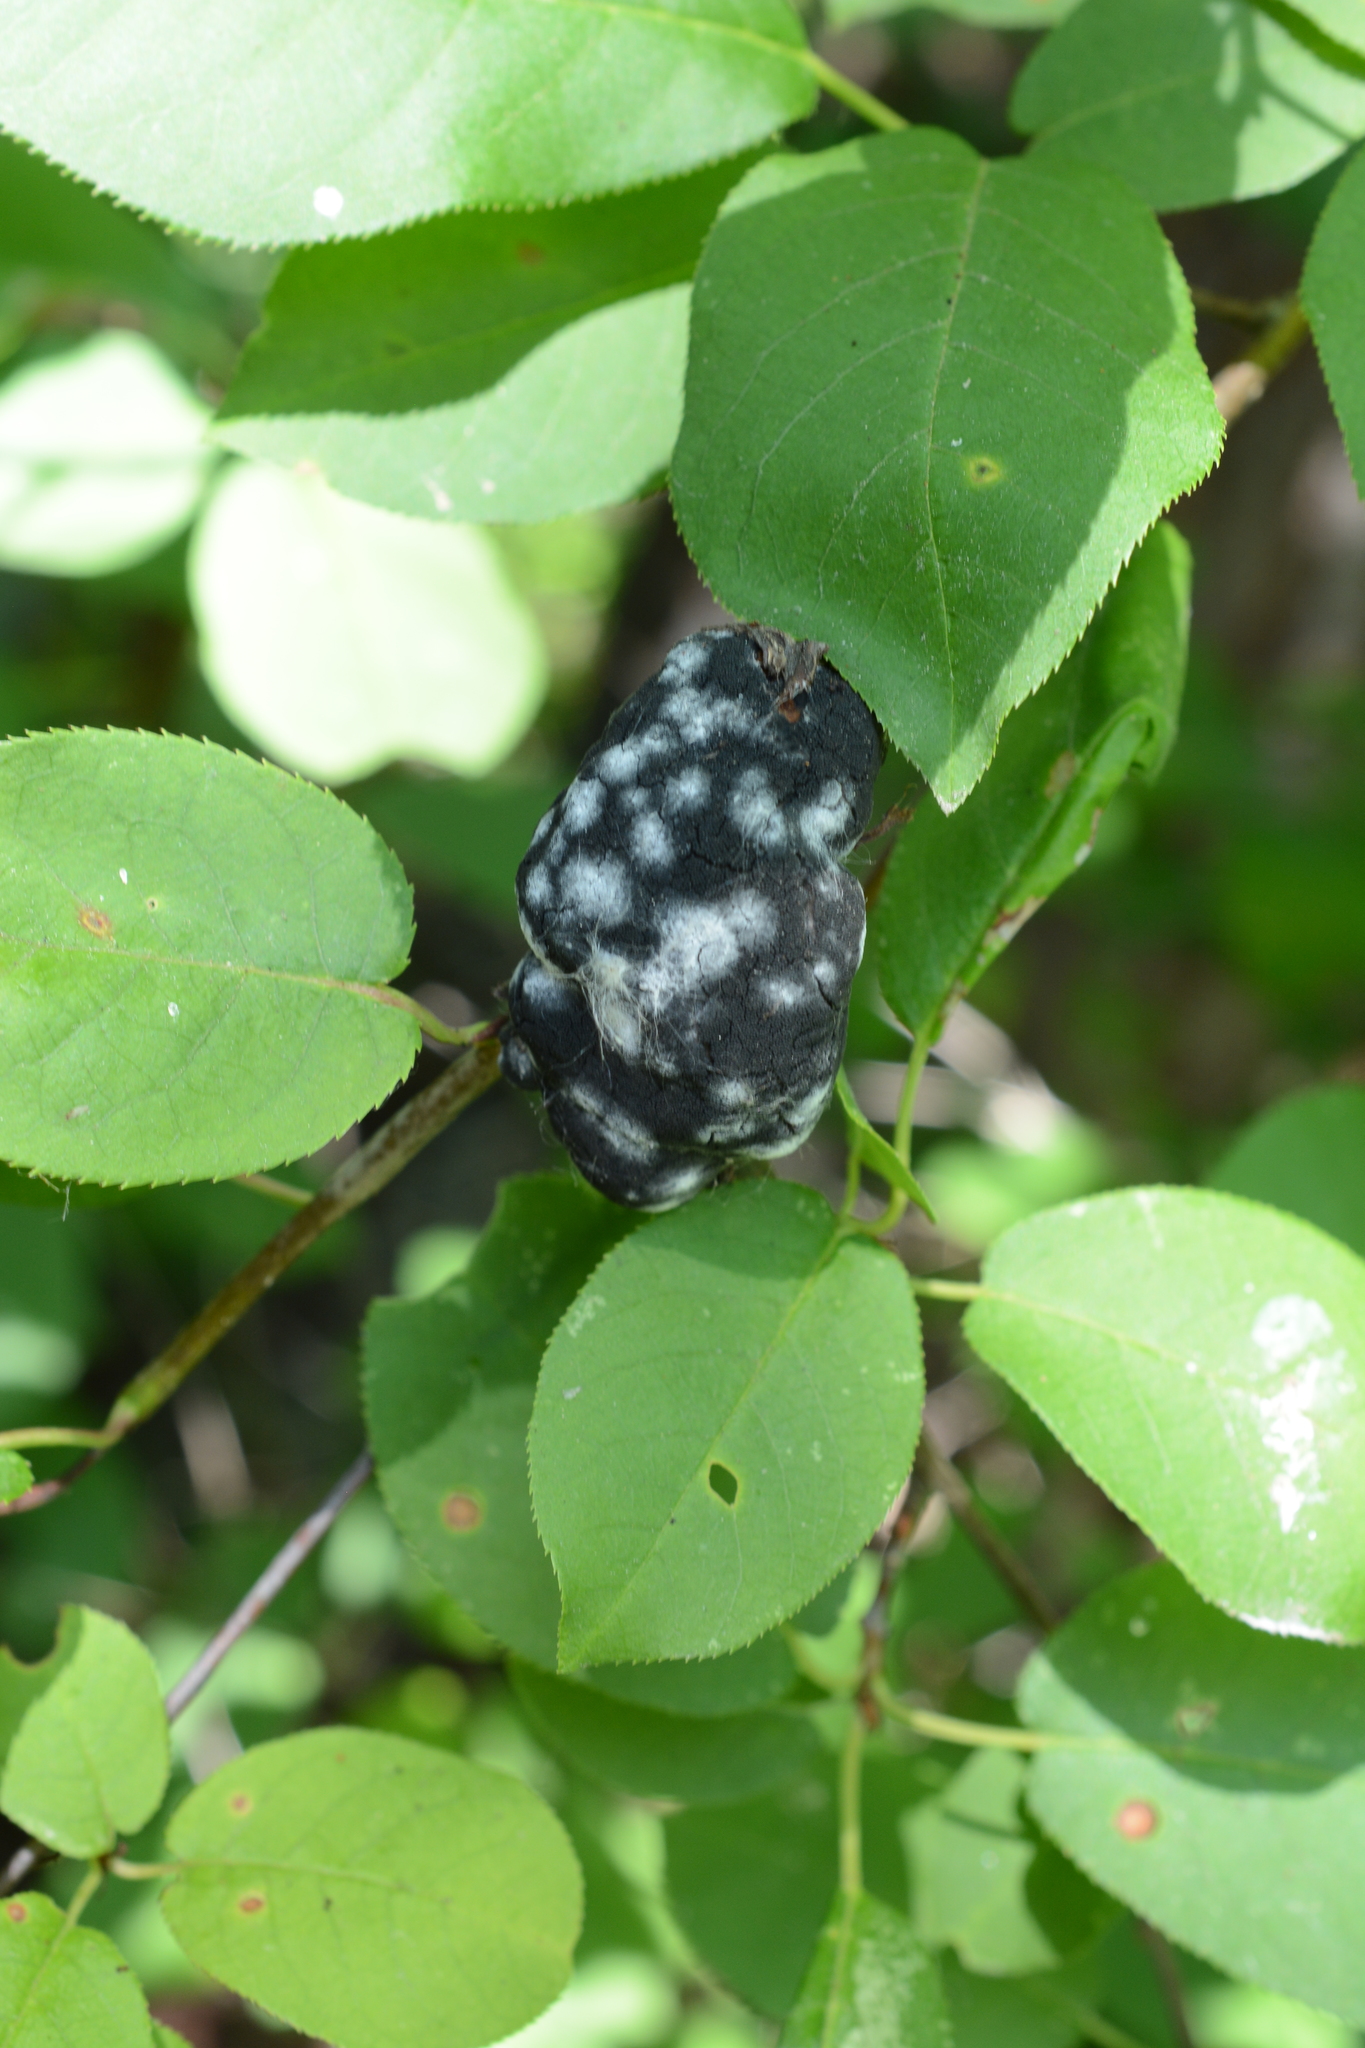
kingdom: Fungi
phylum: Ascomycota
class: Dothideomycetes
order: Venturiales
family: Venturiaceae
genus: Apiosporina
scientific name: Apiosporina morbosa
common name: Black knot
